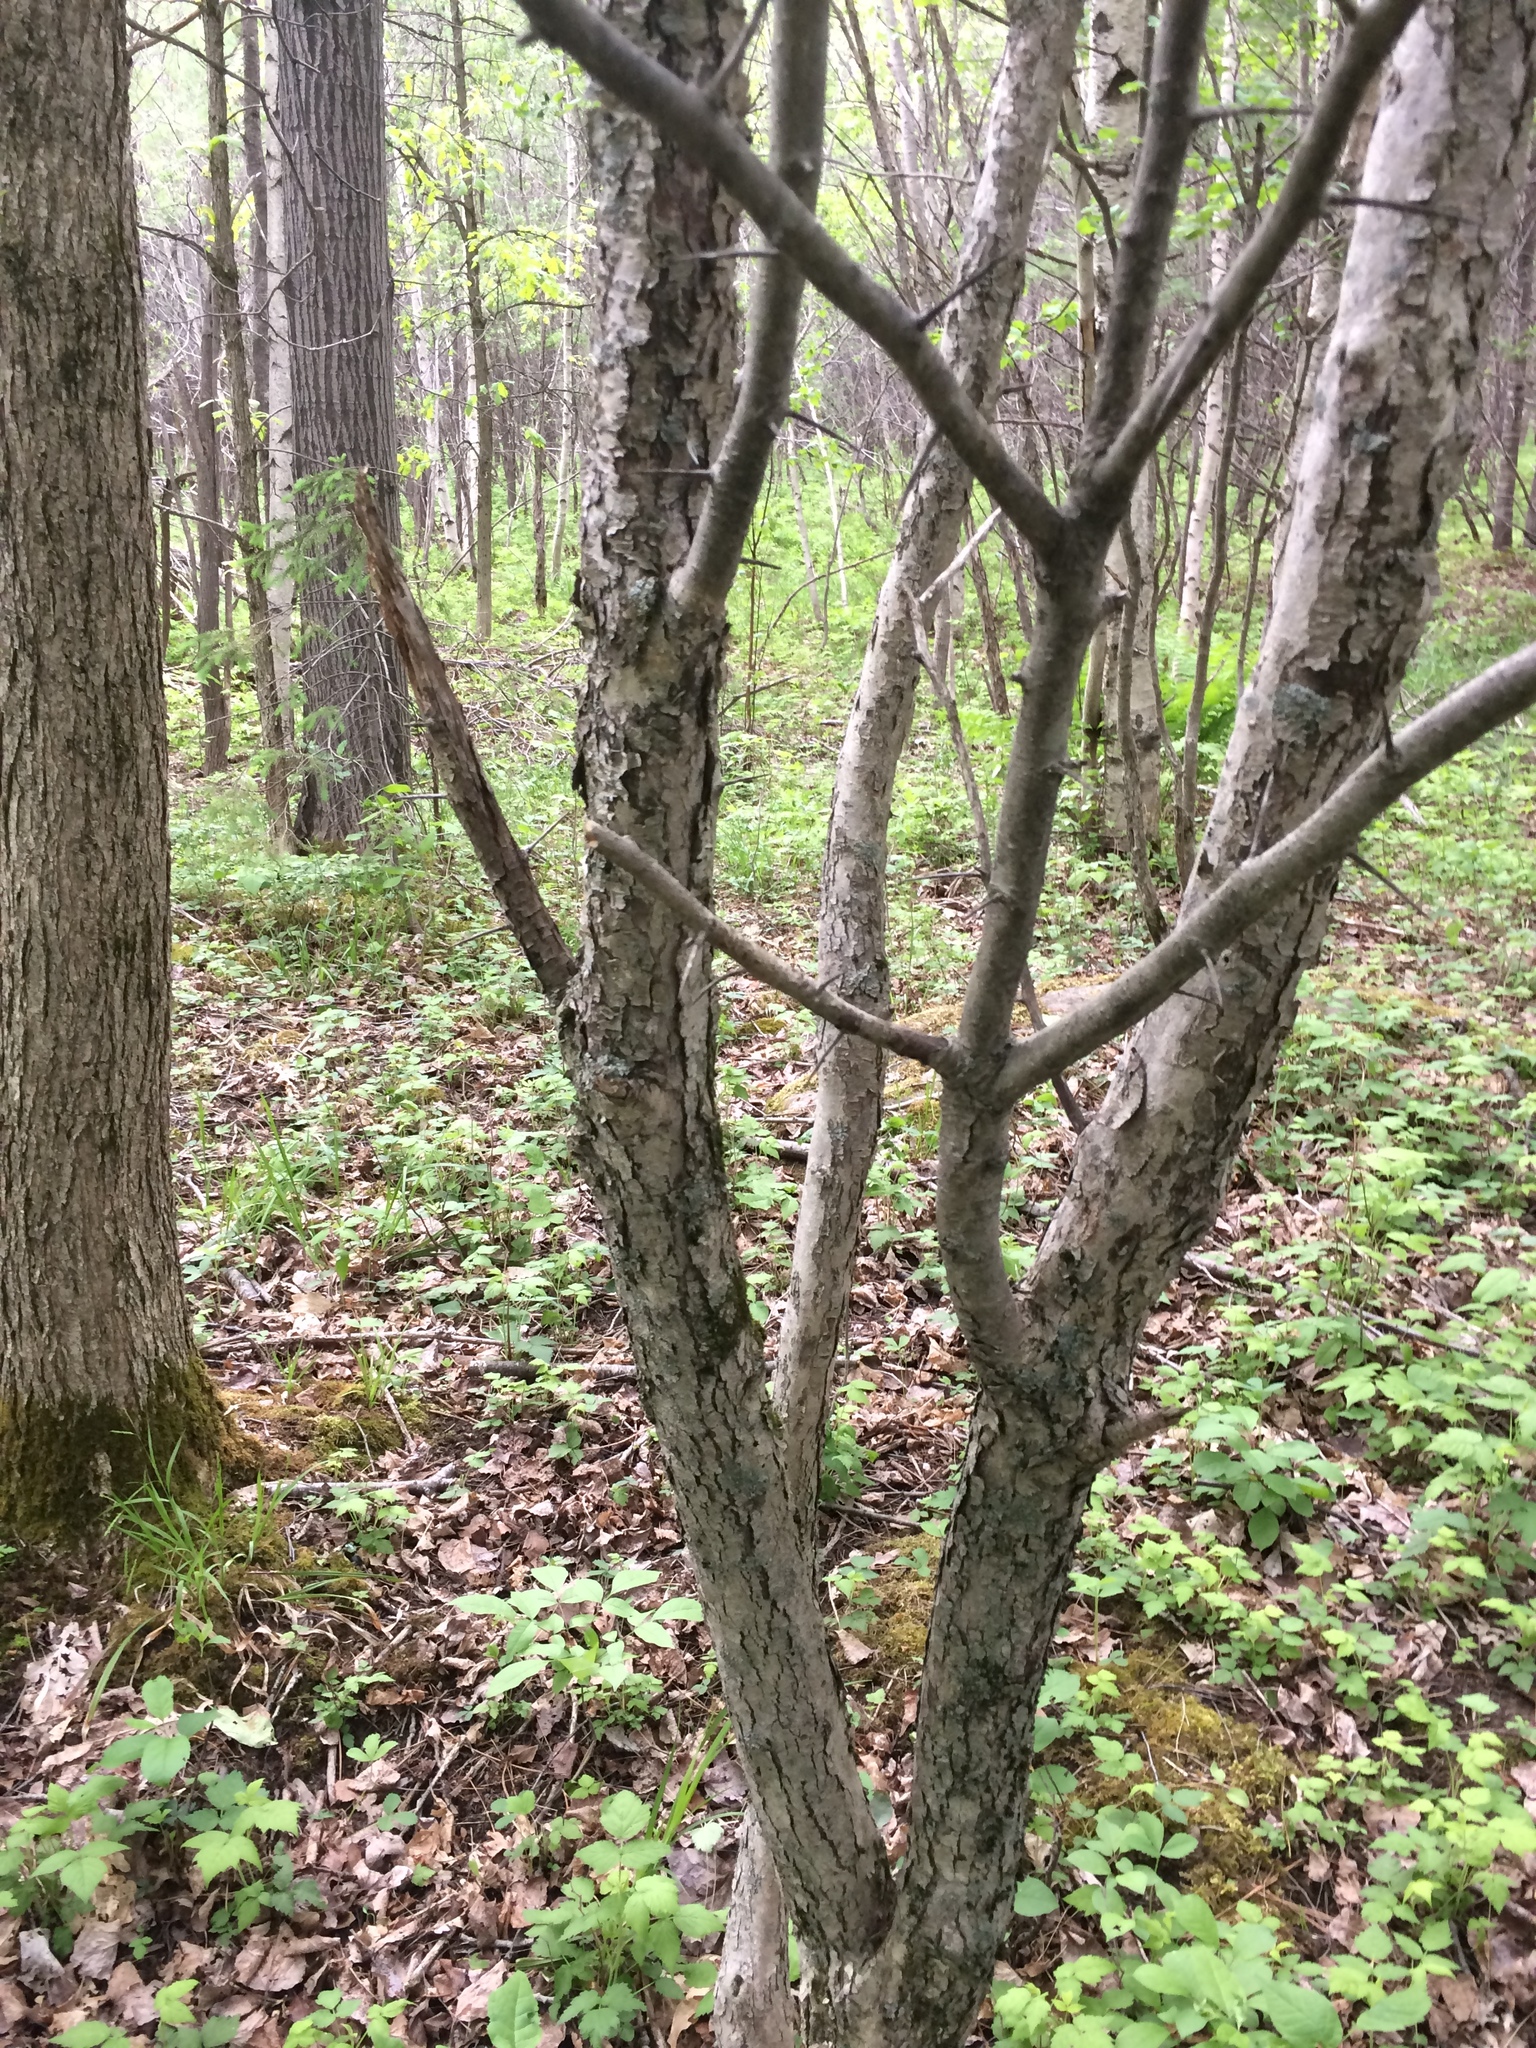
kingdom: Plantae
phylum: Tracheophyta
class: Magnoliopsida
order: Rosales
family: Rosaceae
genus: Crataegus
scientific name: Crataegus flabellata
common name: Bosc's hawthorn
